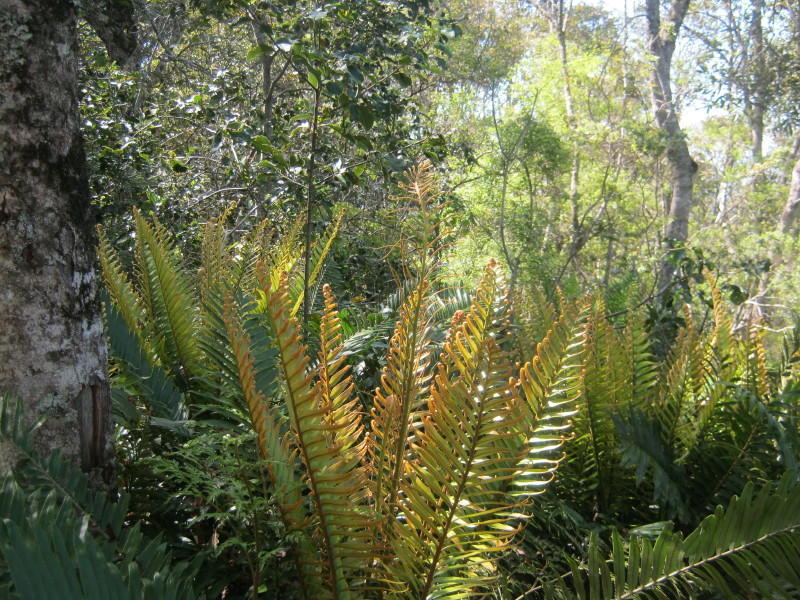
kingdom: Plantae
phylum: Tracheophyta
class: Polypodiopsida
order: Polypodiales
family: Blechnaceae
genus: Lomariocycas
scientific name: Lomariocycas tabularis
